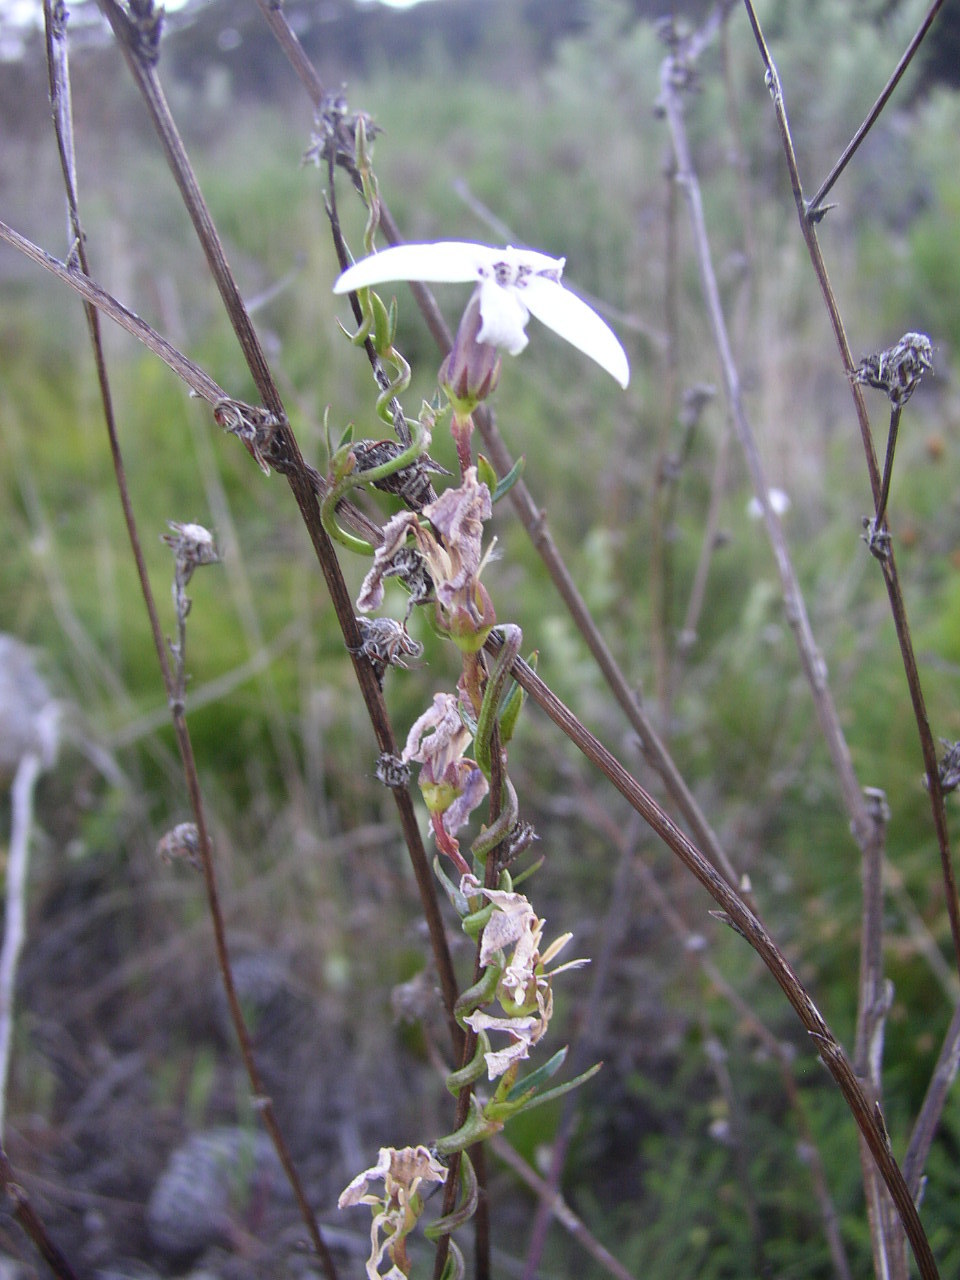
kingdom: Plantae
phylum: Tracheophyta
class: Magnoliopsida
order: Asterales
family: Campanulaceae
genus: Cyphia
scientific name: Cyphia volubilis
